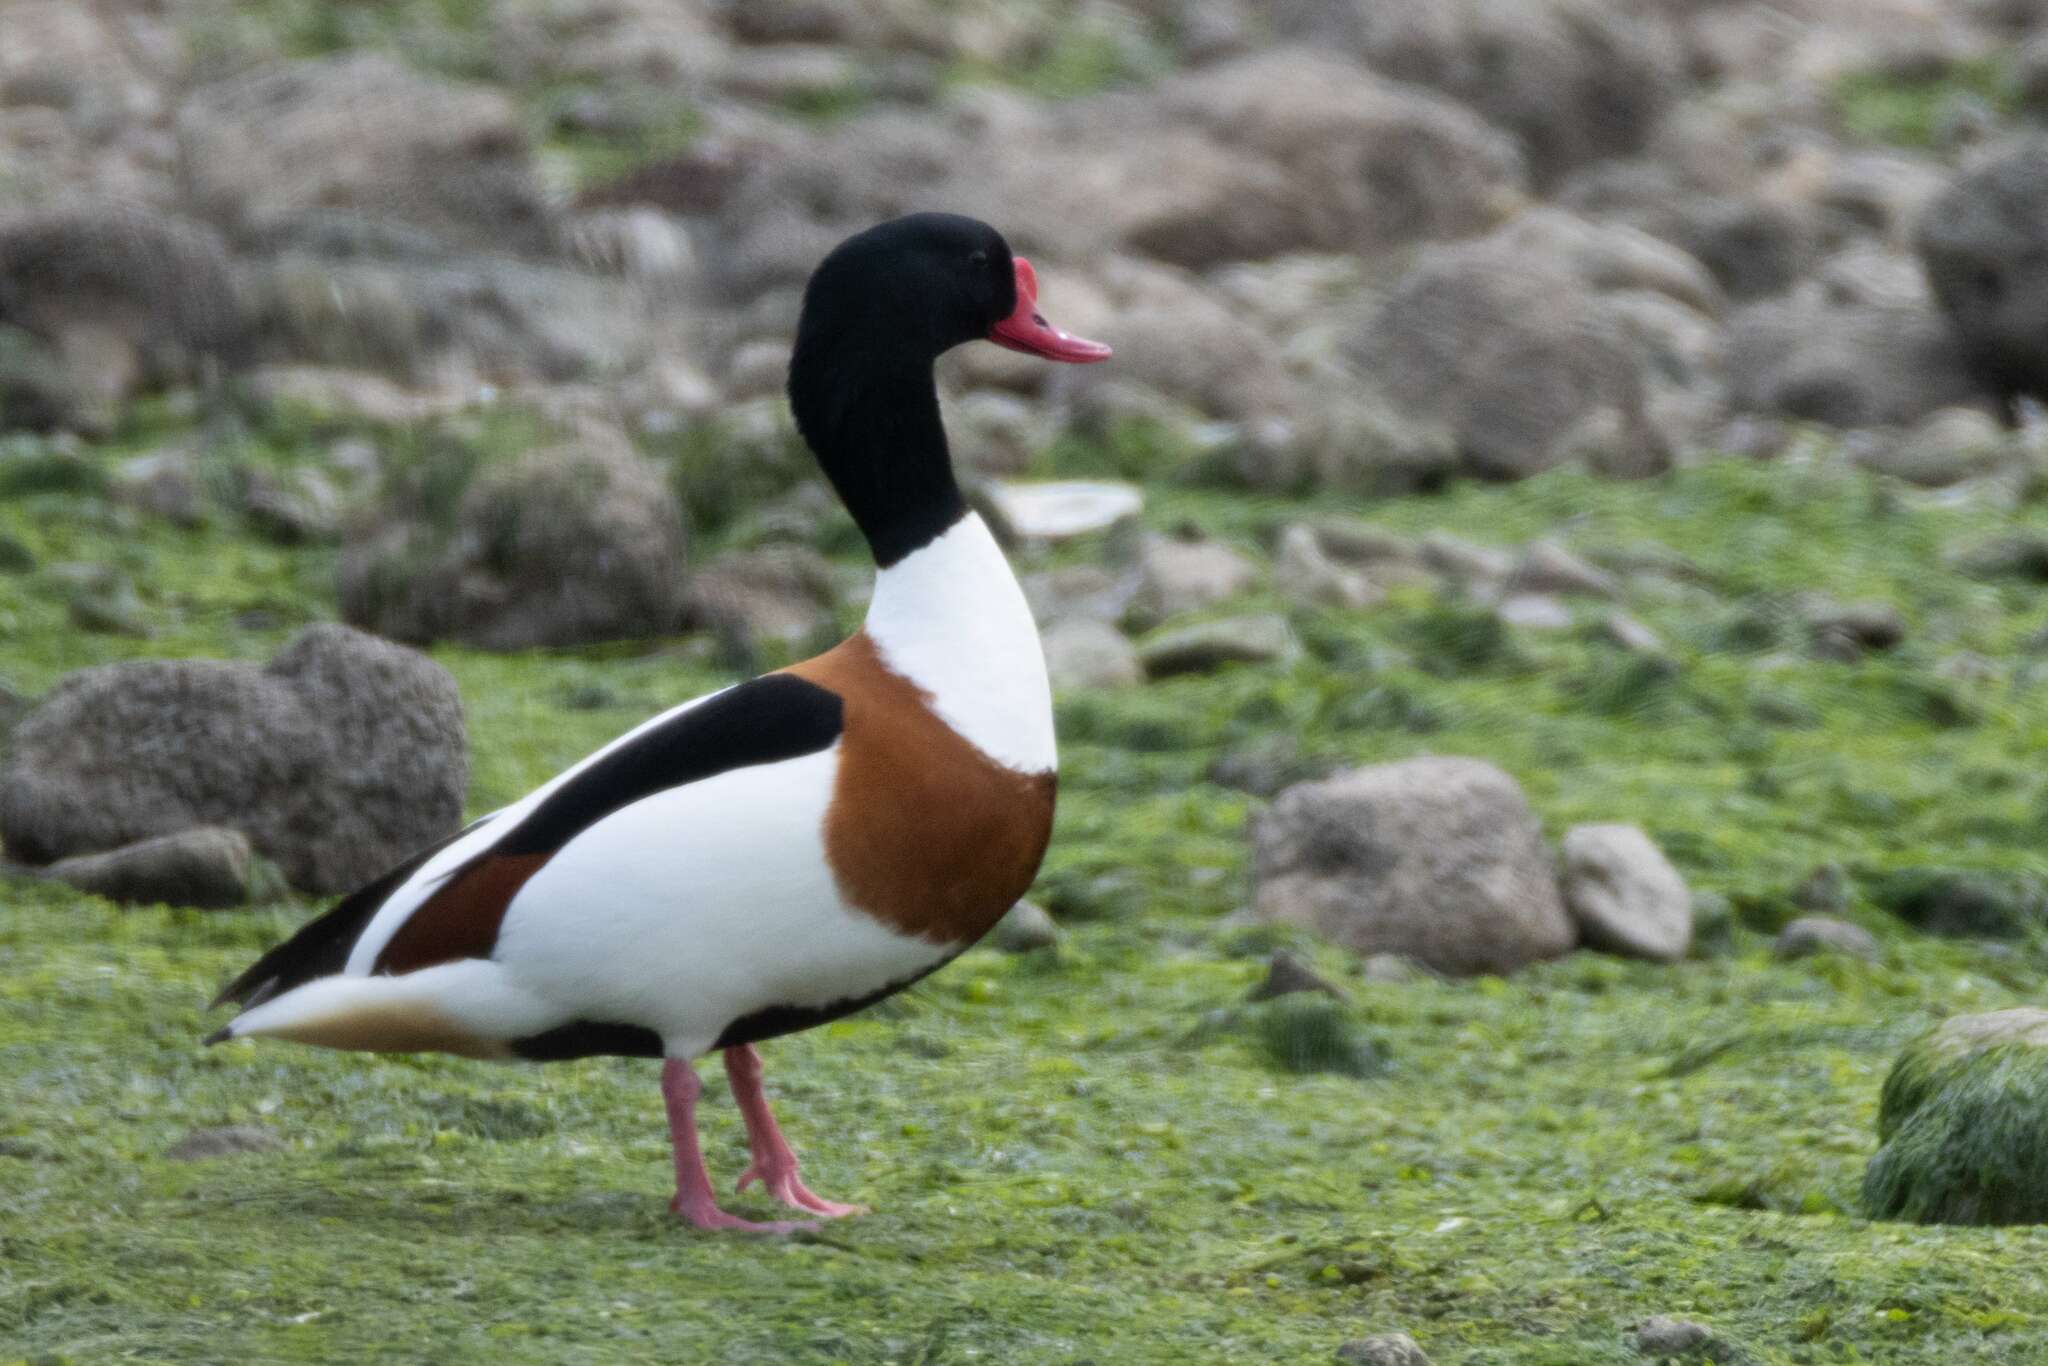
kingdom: Animalia
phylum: Chordata
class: Aves
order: Anseriformes
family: Anatidae
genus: Tadorna
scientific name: Tadorna tadorna
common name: Common shelduck
